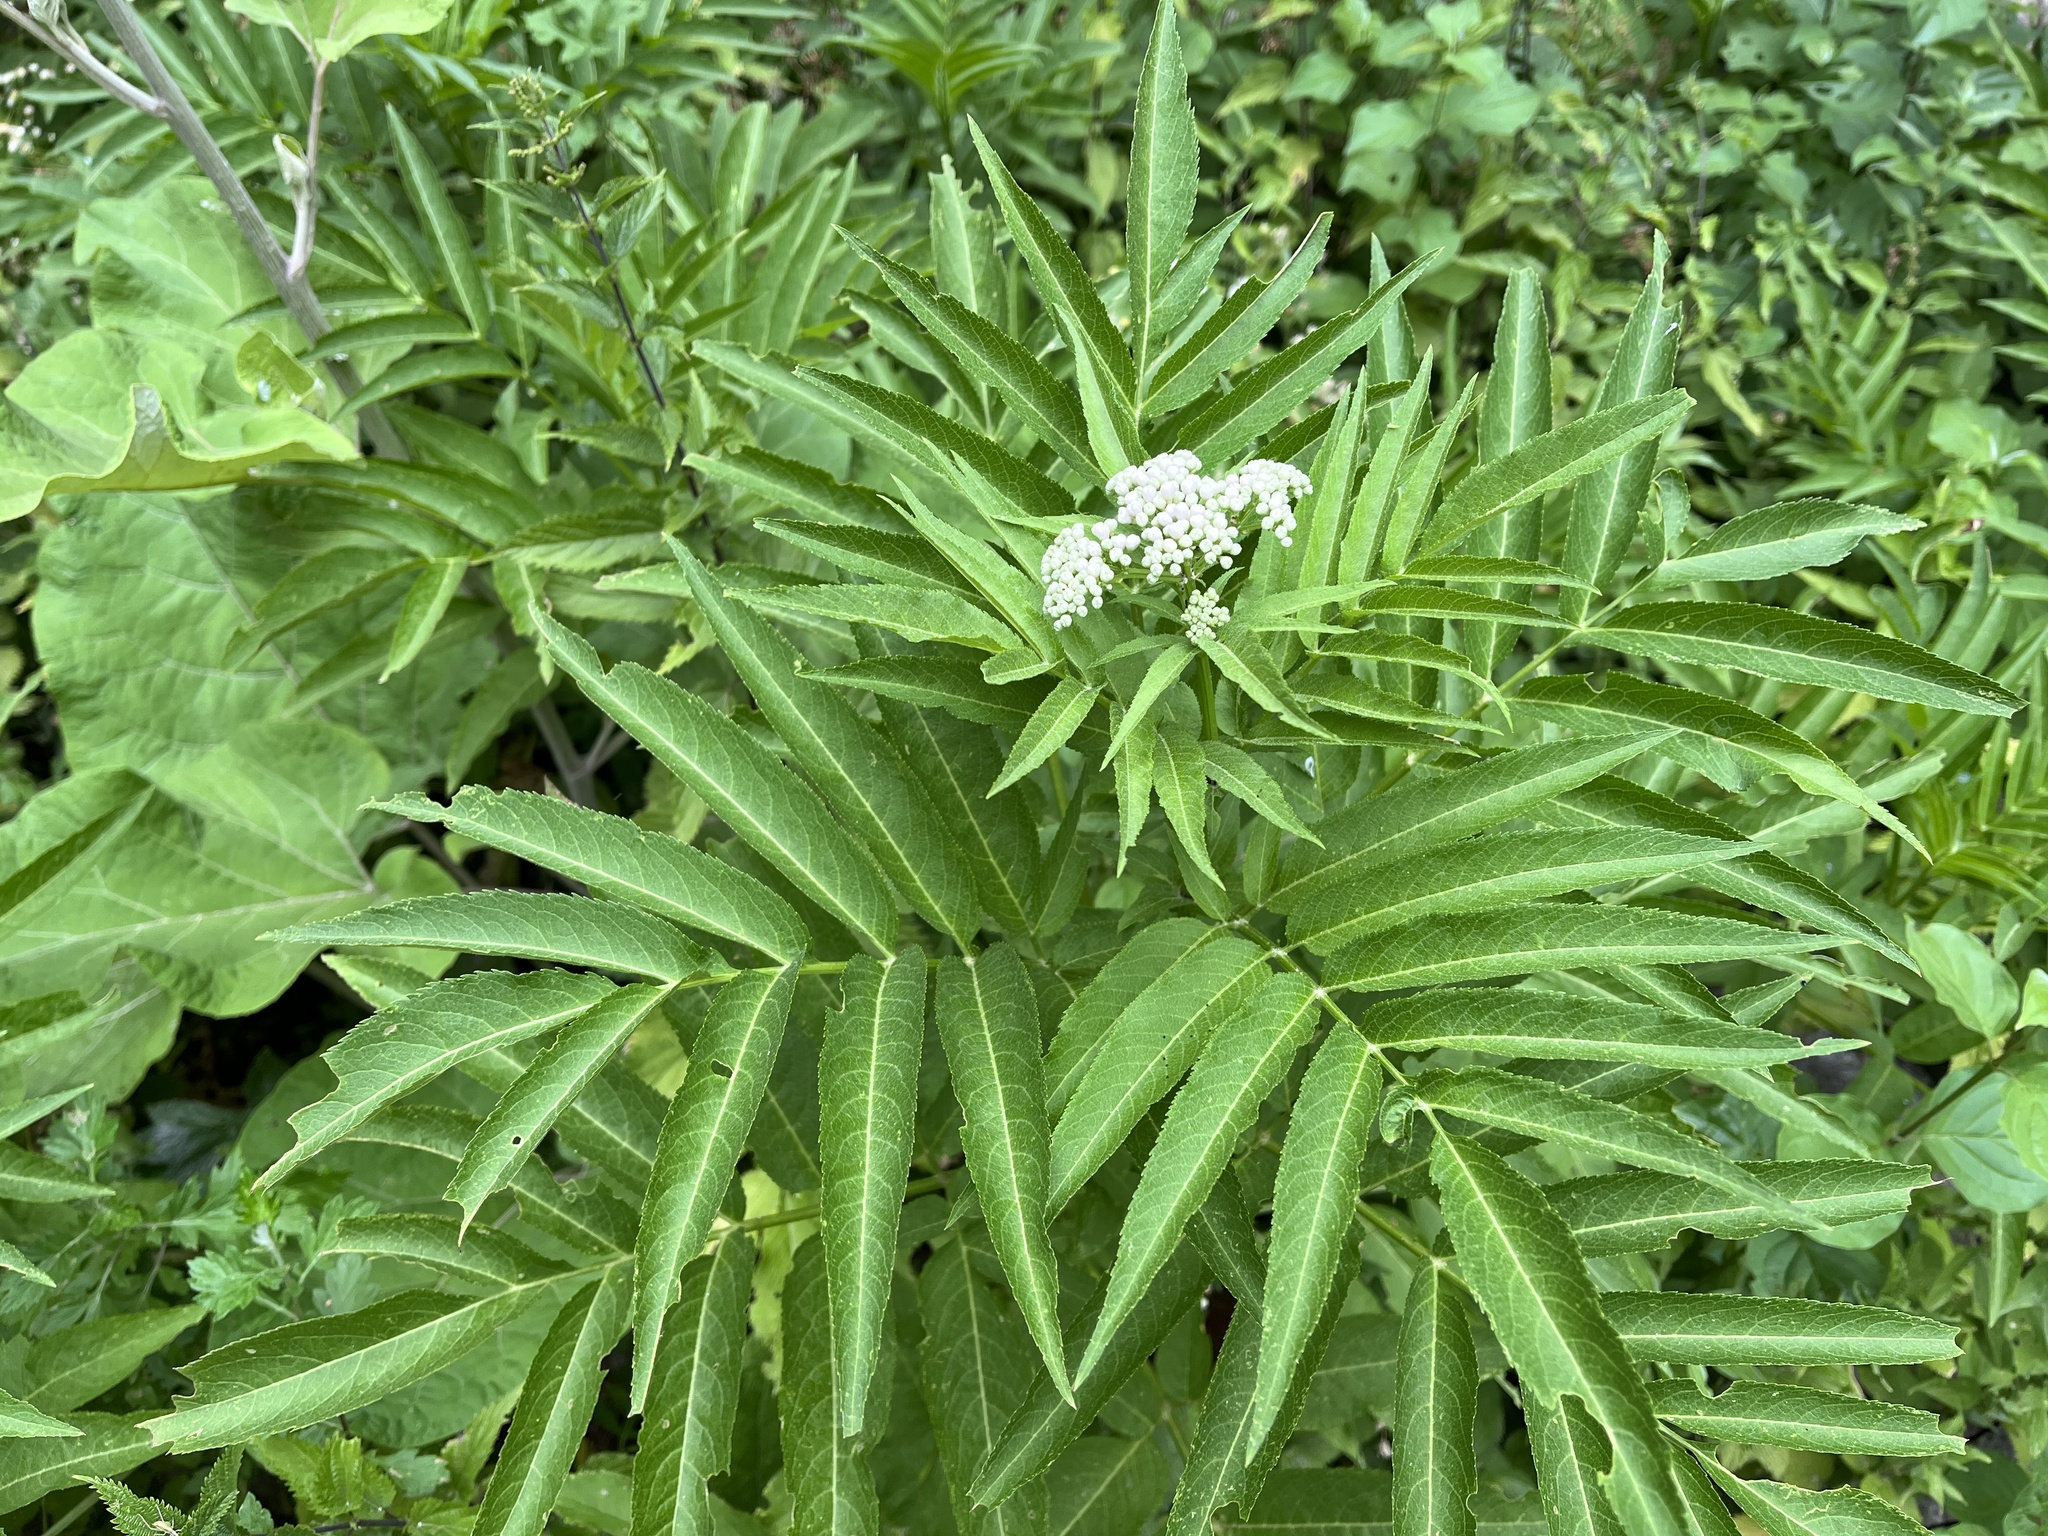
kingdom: Plantae
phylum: Tracheophyta
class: Magnoliopsida
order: Dipsacales
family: Viburnaceae
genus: Sambucus
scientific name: Sambucus ebulus
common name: Dwarf elder
